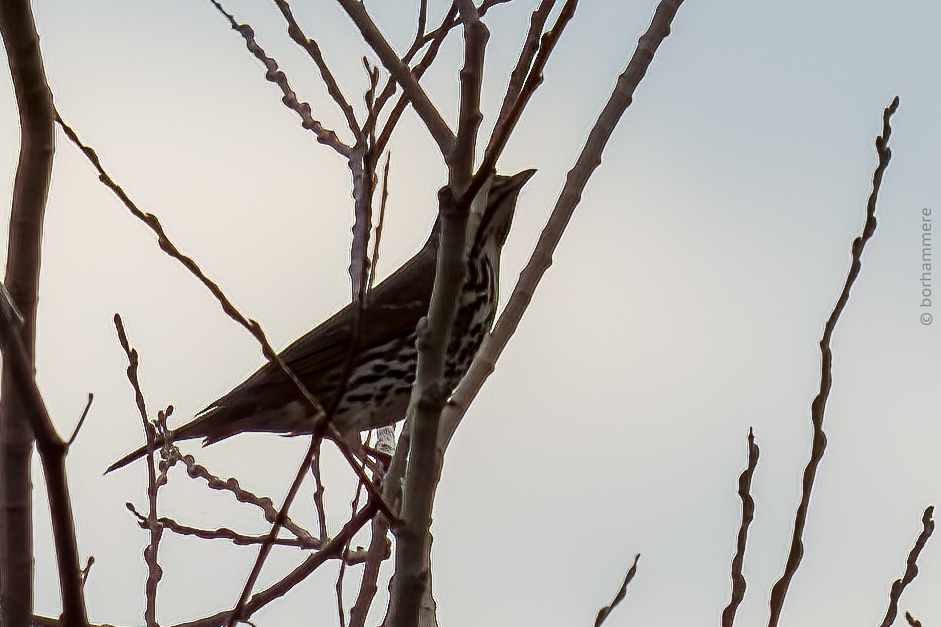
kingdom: Animalia
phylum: Chordata
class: Aves
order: Passeriformes
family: Turdidae
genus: Turdus
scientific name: Turdus philomelos
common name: Song thrush
